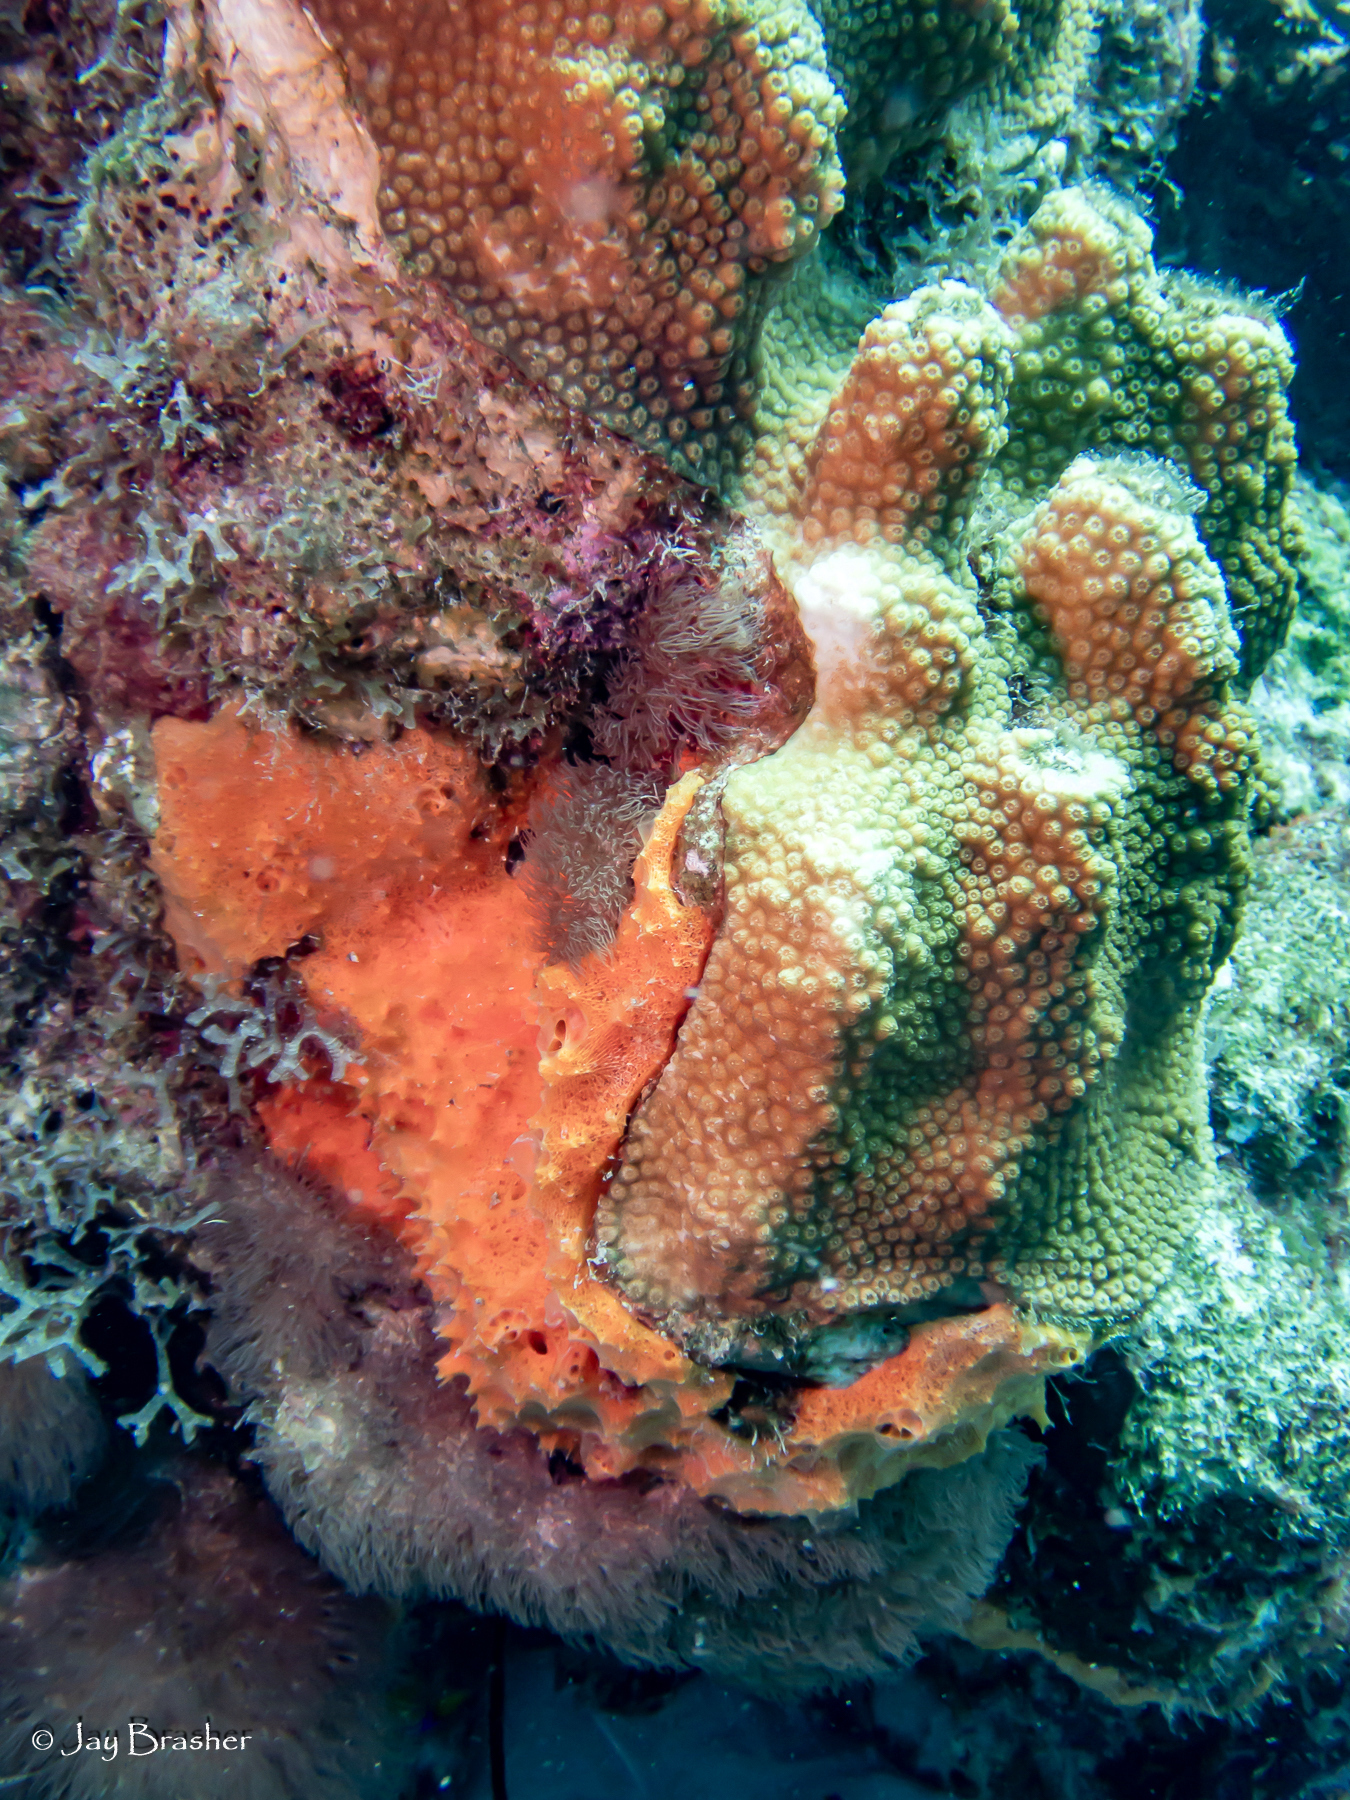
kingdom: Animalia
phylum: Porifera
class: Demospongiae
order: Scopalinida
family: Scopalinidae
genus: Scopalina
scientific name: Scopalina ruetzleri
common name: Orange lumpy encrusting sponge
